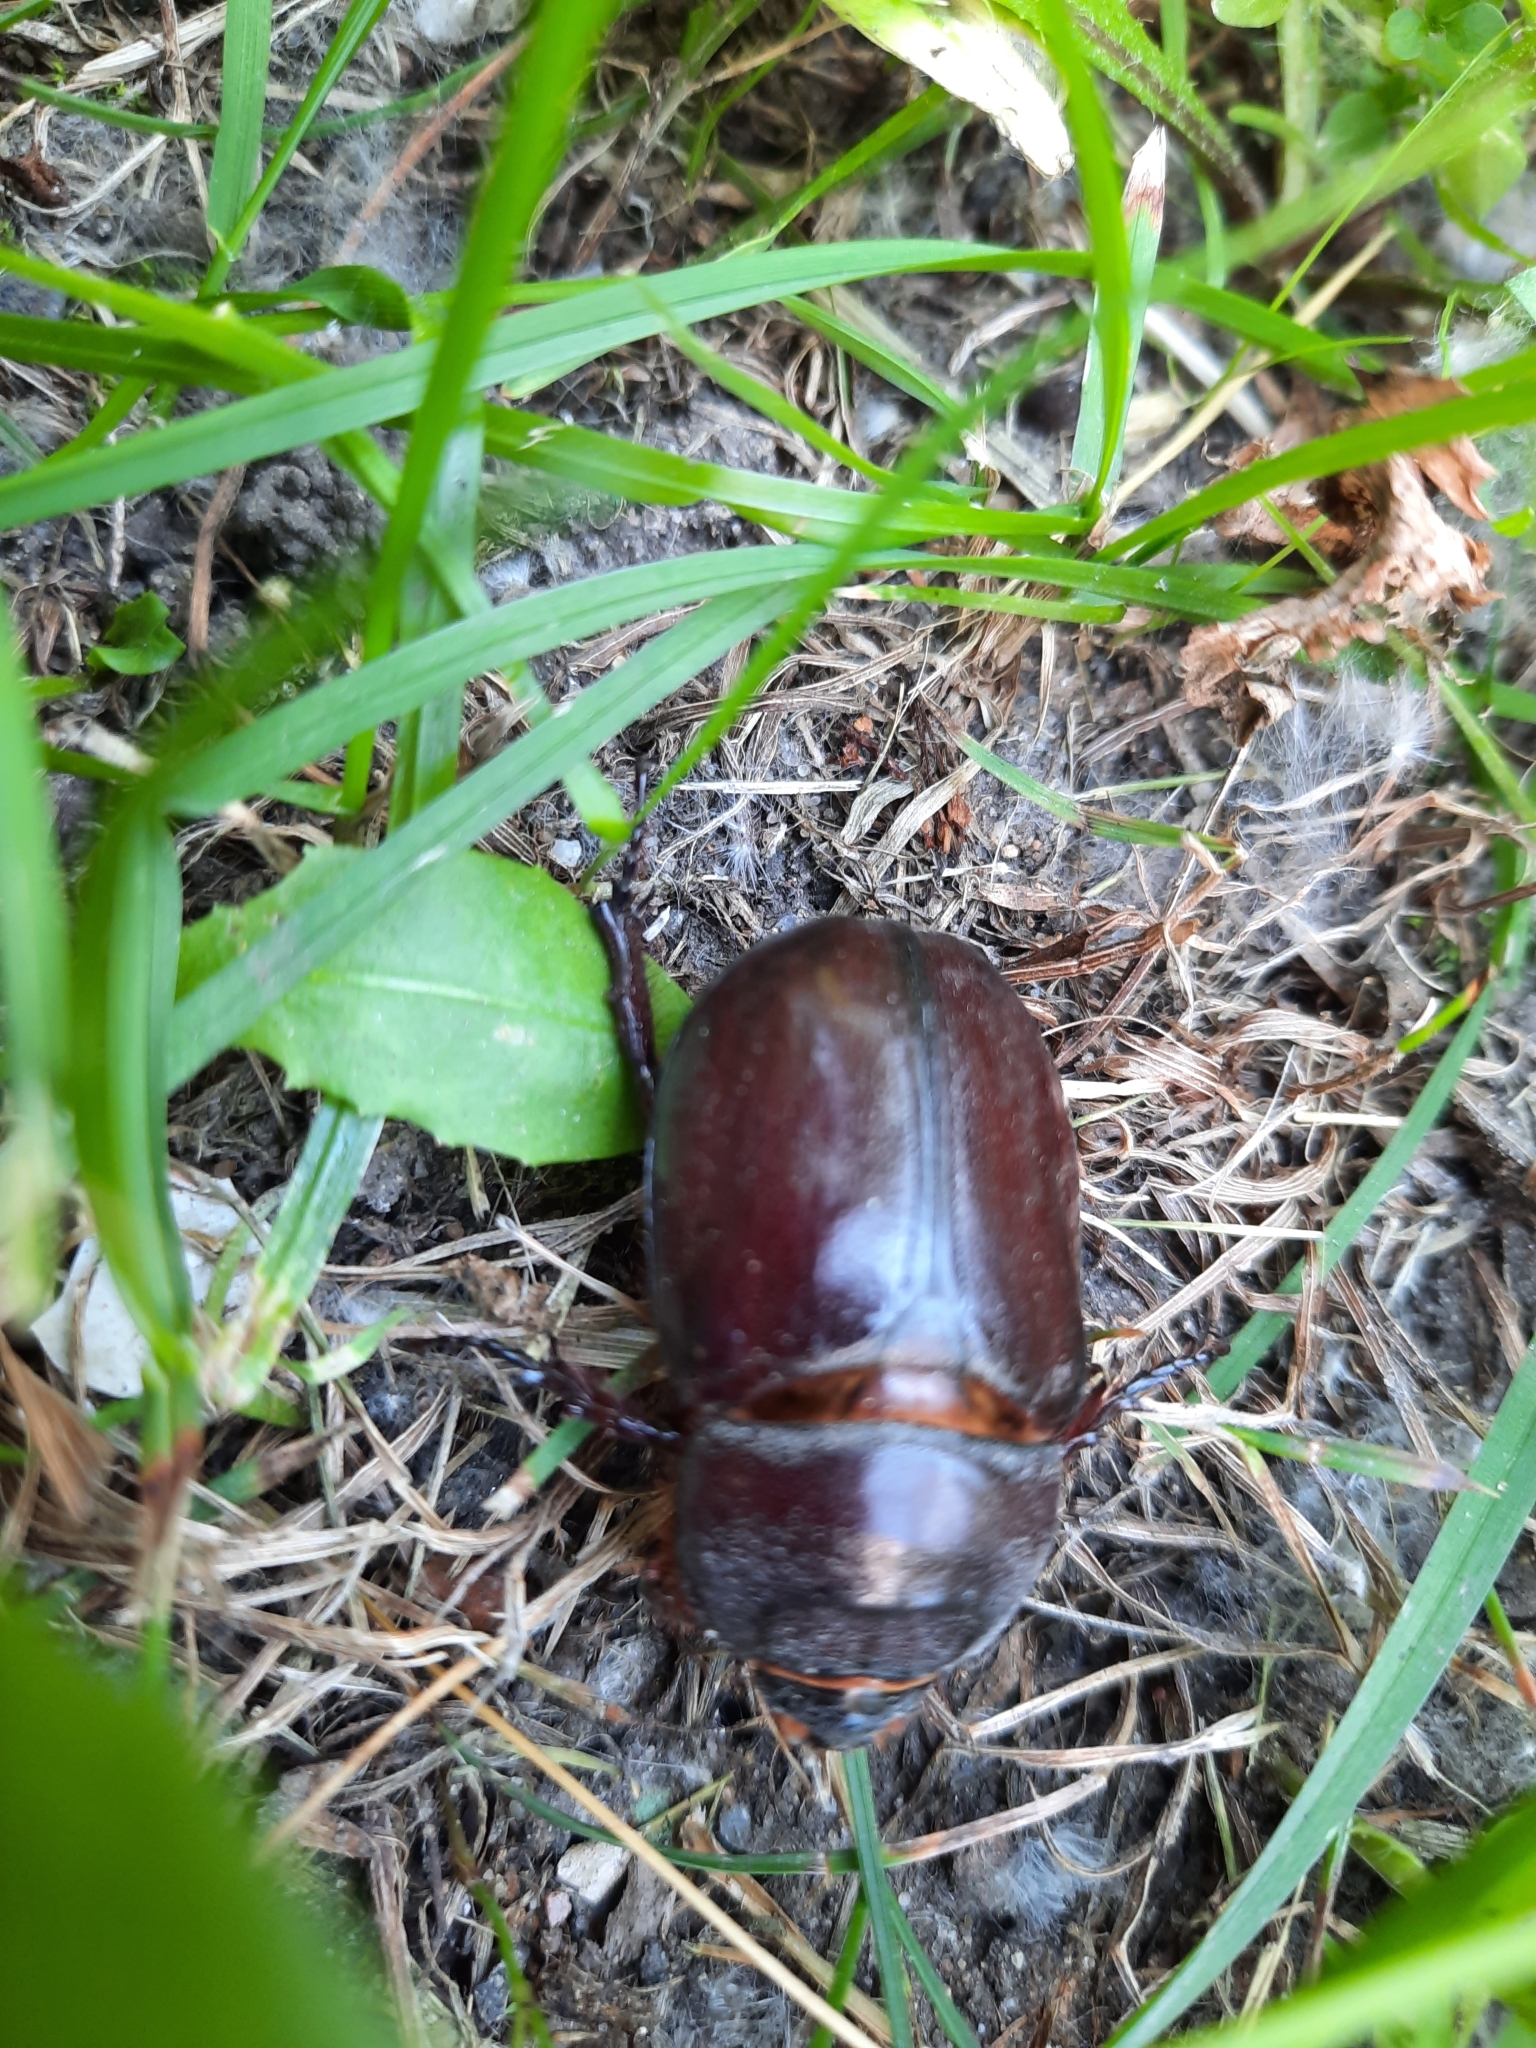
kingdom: Animalia
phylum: Arthropoda
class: Insecta
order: Coleoptera
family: Scarabaeidae
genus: Oryctes
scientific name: Oryctes nasicornis
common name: European rhinoceros beetle
